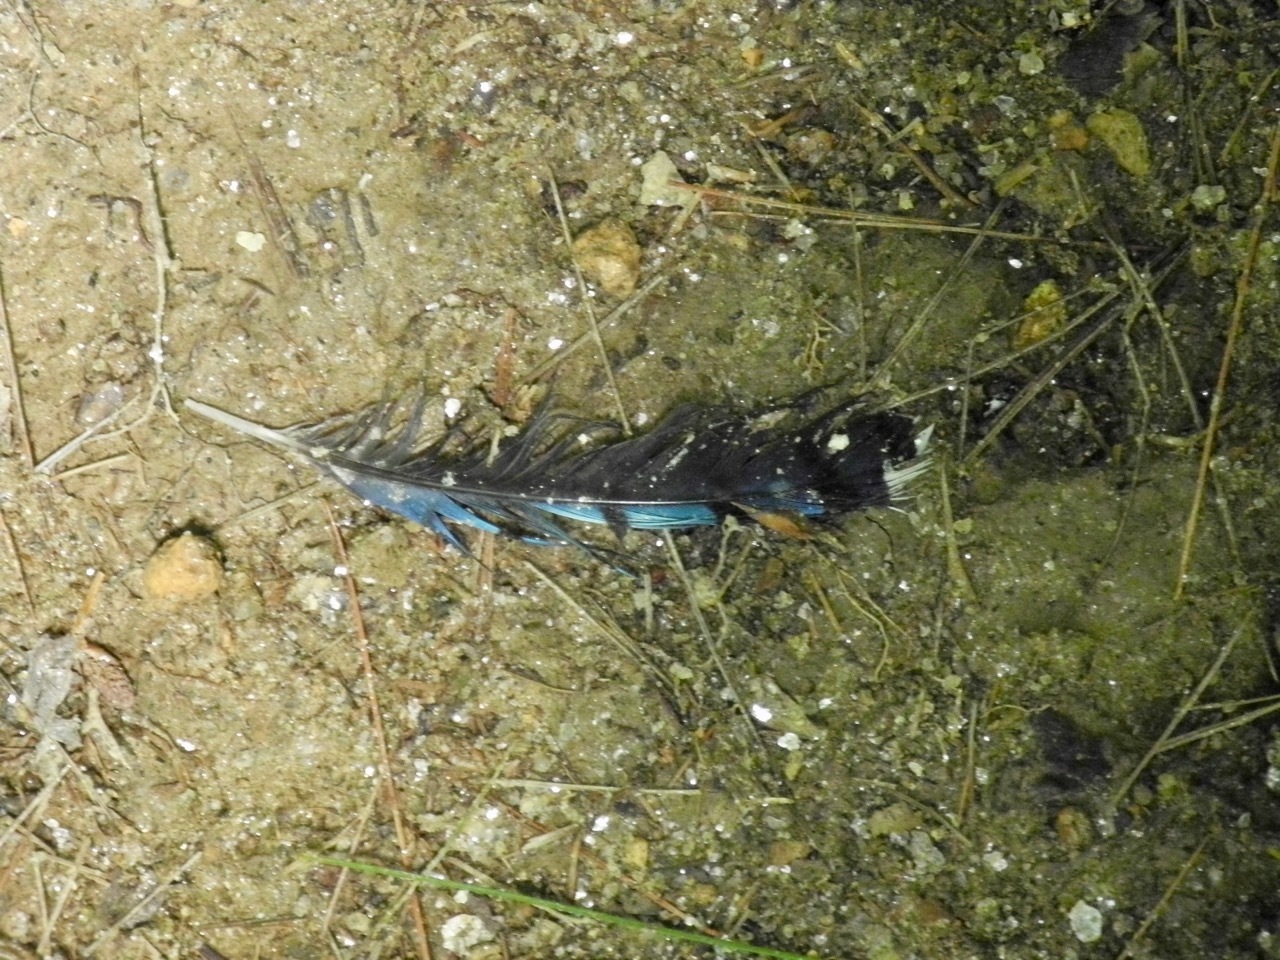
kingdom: Animalia
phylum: Chordata
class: Aves
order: Passeriformes
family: Corvidae
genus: Cyanocitta
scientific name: Cyanocitta cristata
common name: Blue jay
